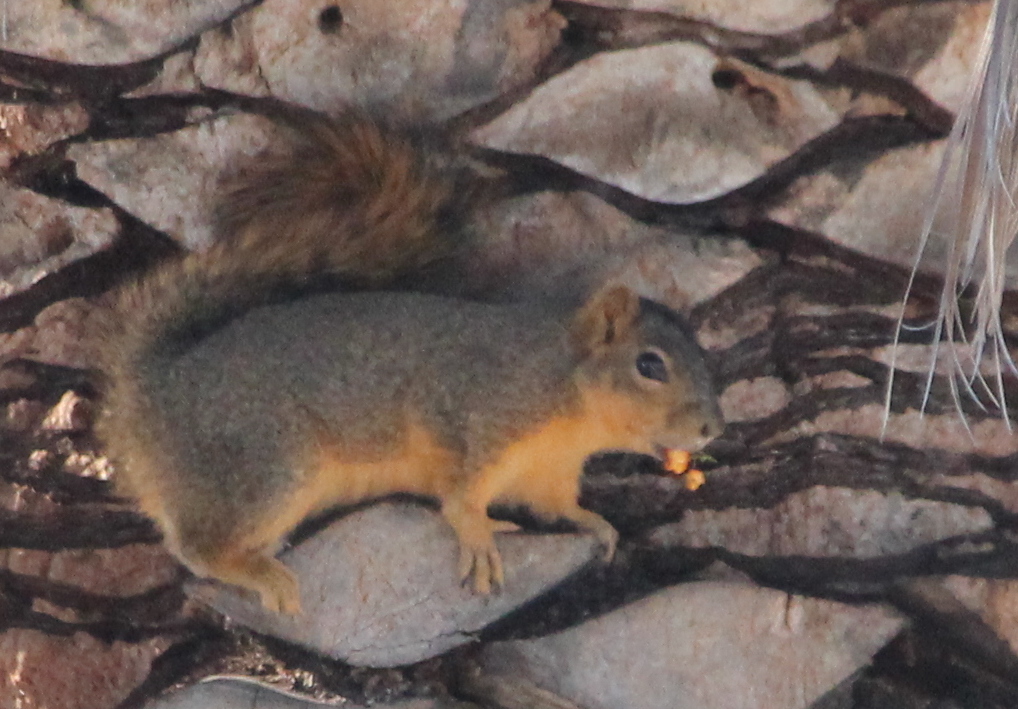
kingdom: Animalia
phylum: Chordata
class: Mammalia
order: Rodentia
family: Sciuridae
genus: Sciurus
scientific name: Sciurus niger
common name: Fox squirrel
